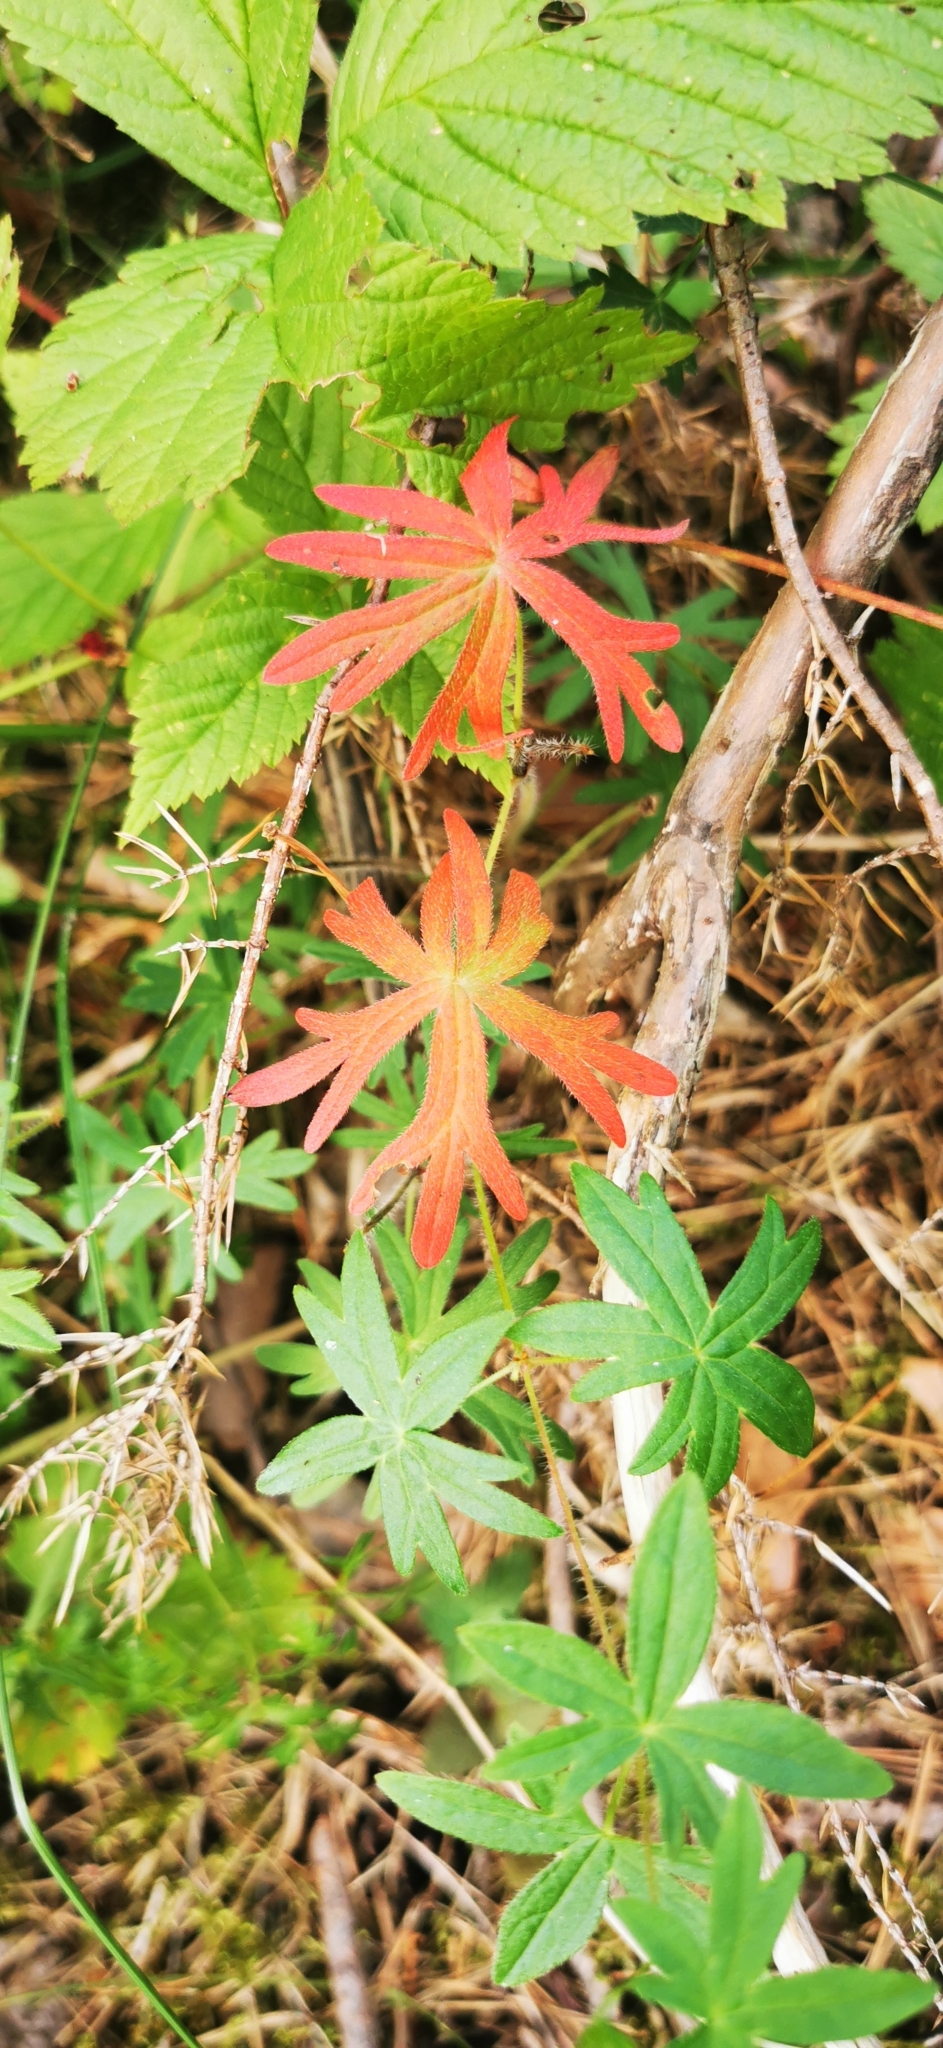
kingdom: Plantae
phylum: Tracheophyta
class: Magnoliopsida
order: Geraniales
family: Geraniaceae
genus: Geranium
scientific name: Geranium sanguineum
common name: Bloody crane's-bill
